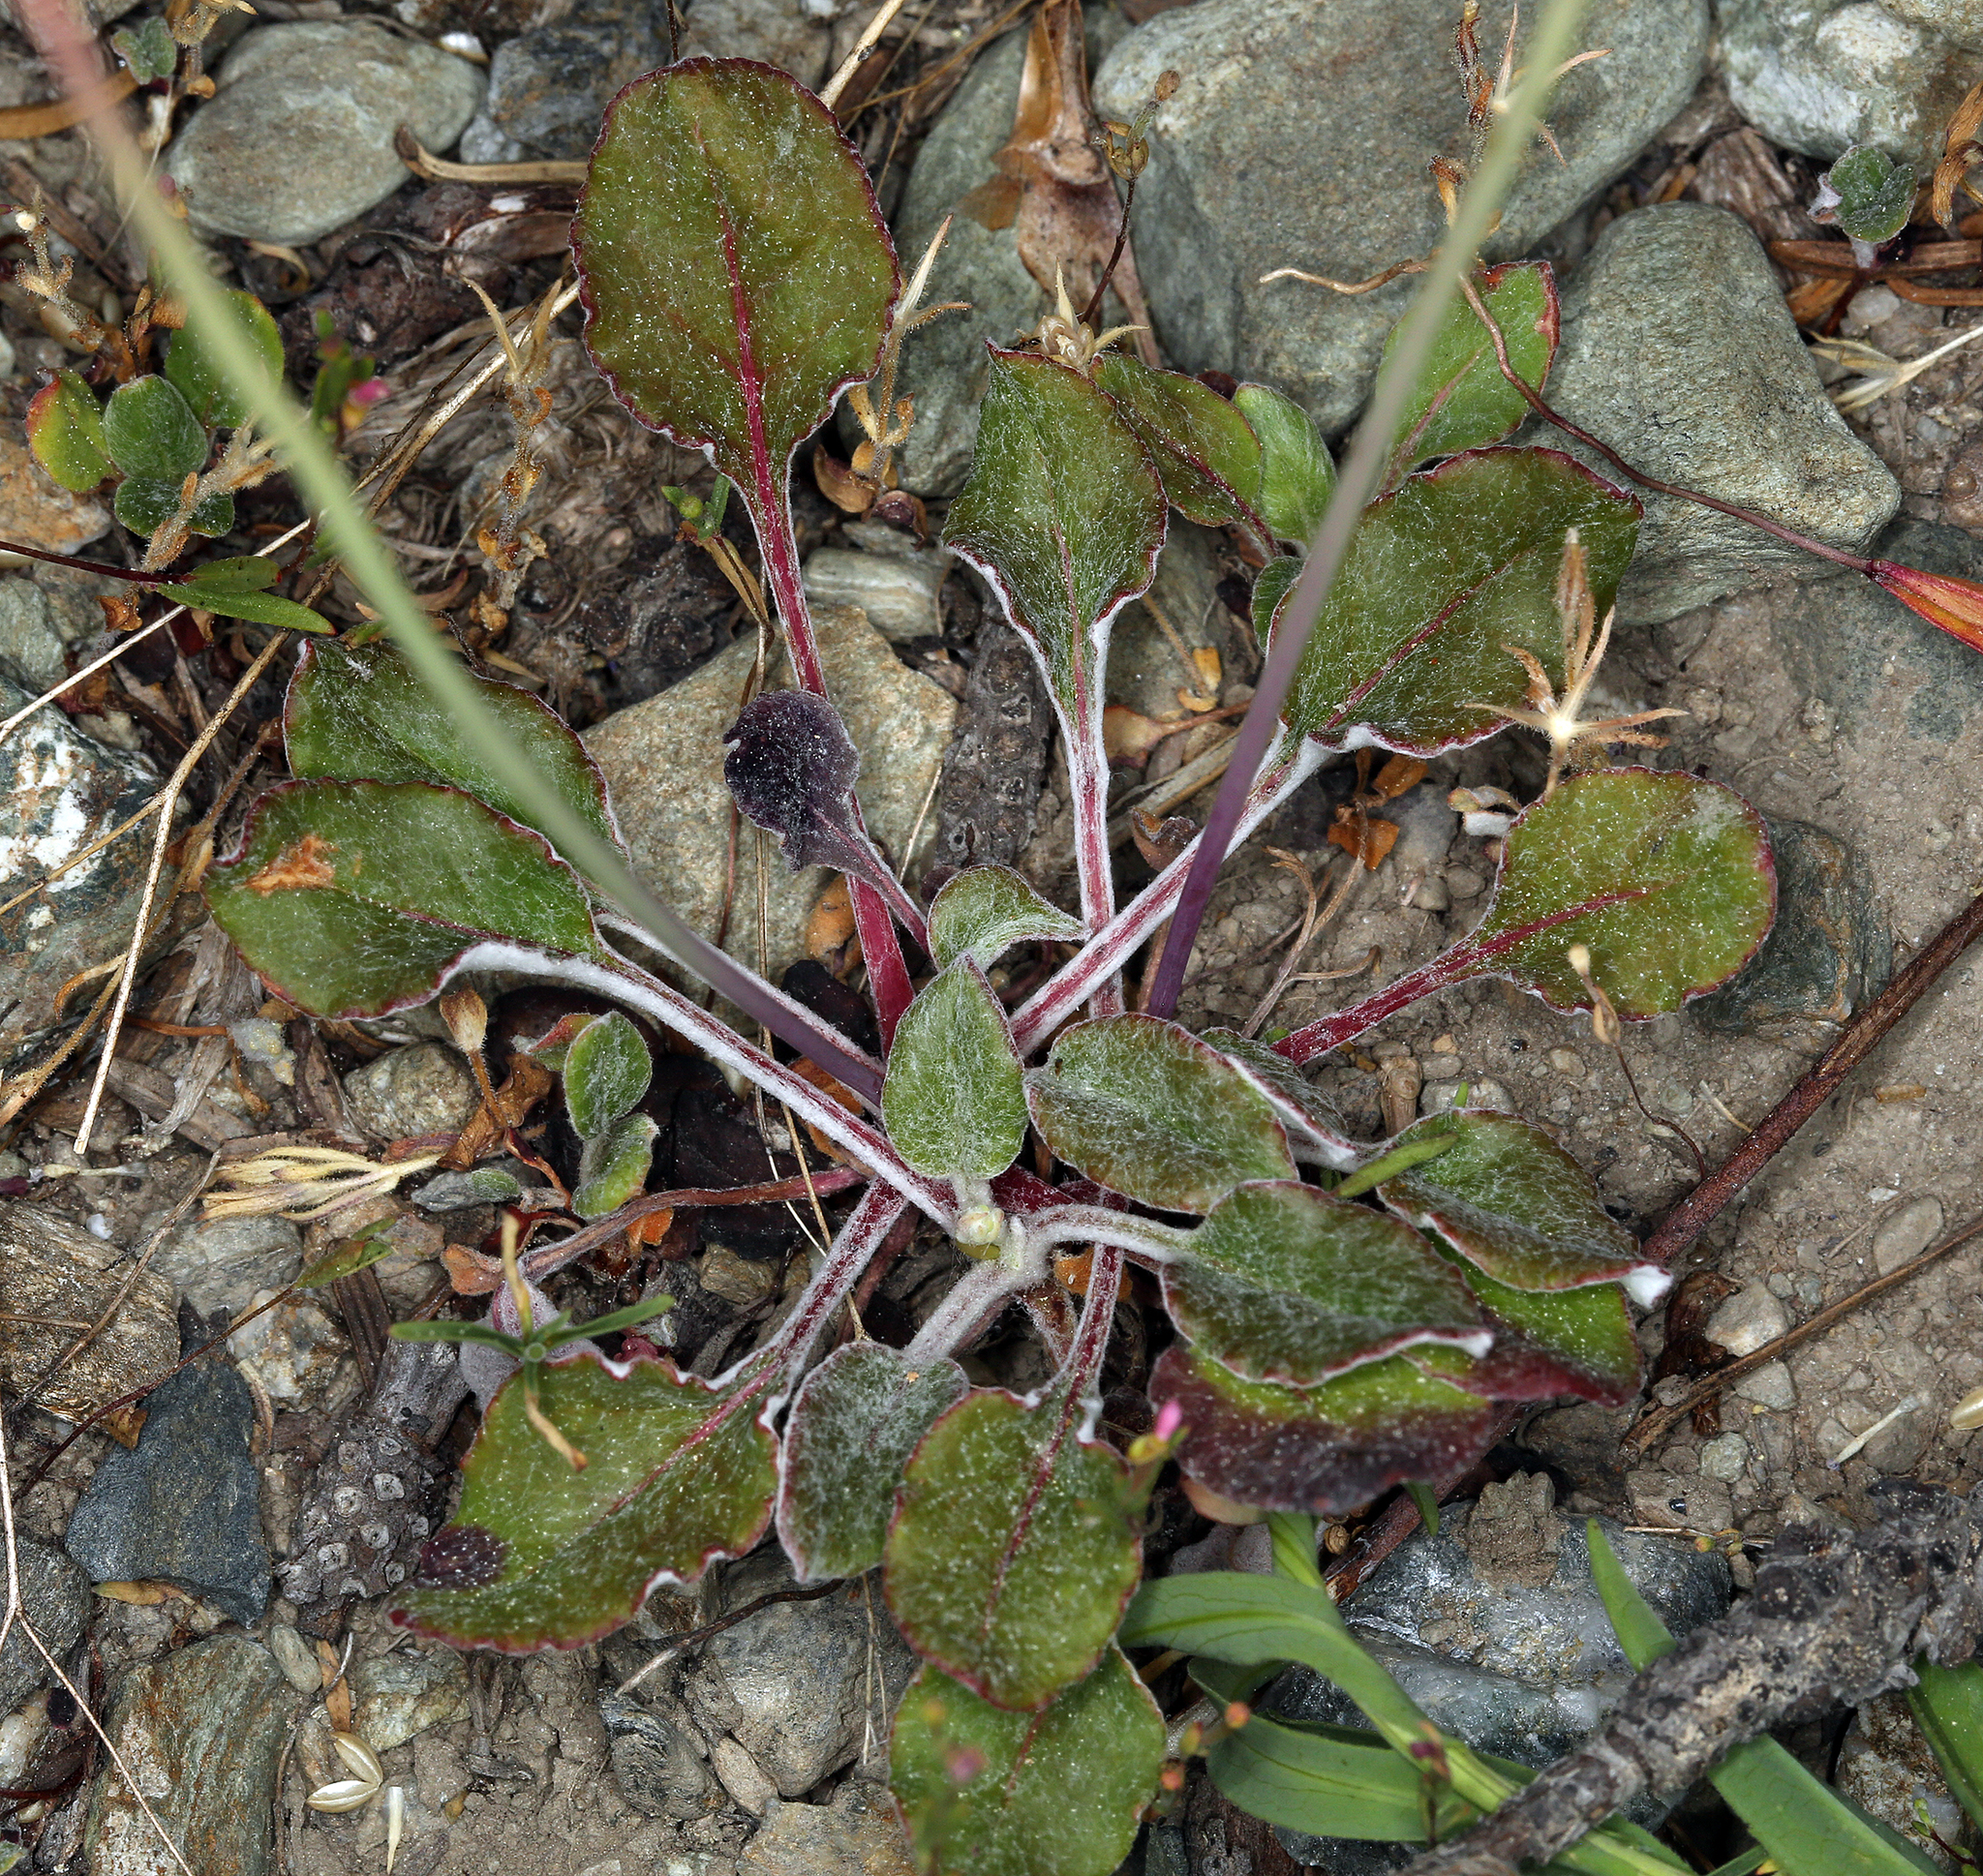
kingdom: Plantae
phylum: Tracheophyta
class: Magnoliopsida
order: Caryophyllales
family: Polygonaceae
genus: Eriogonum
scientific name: Eriogonum nudum
